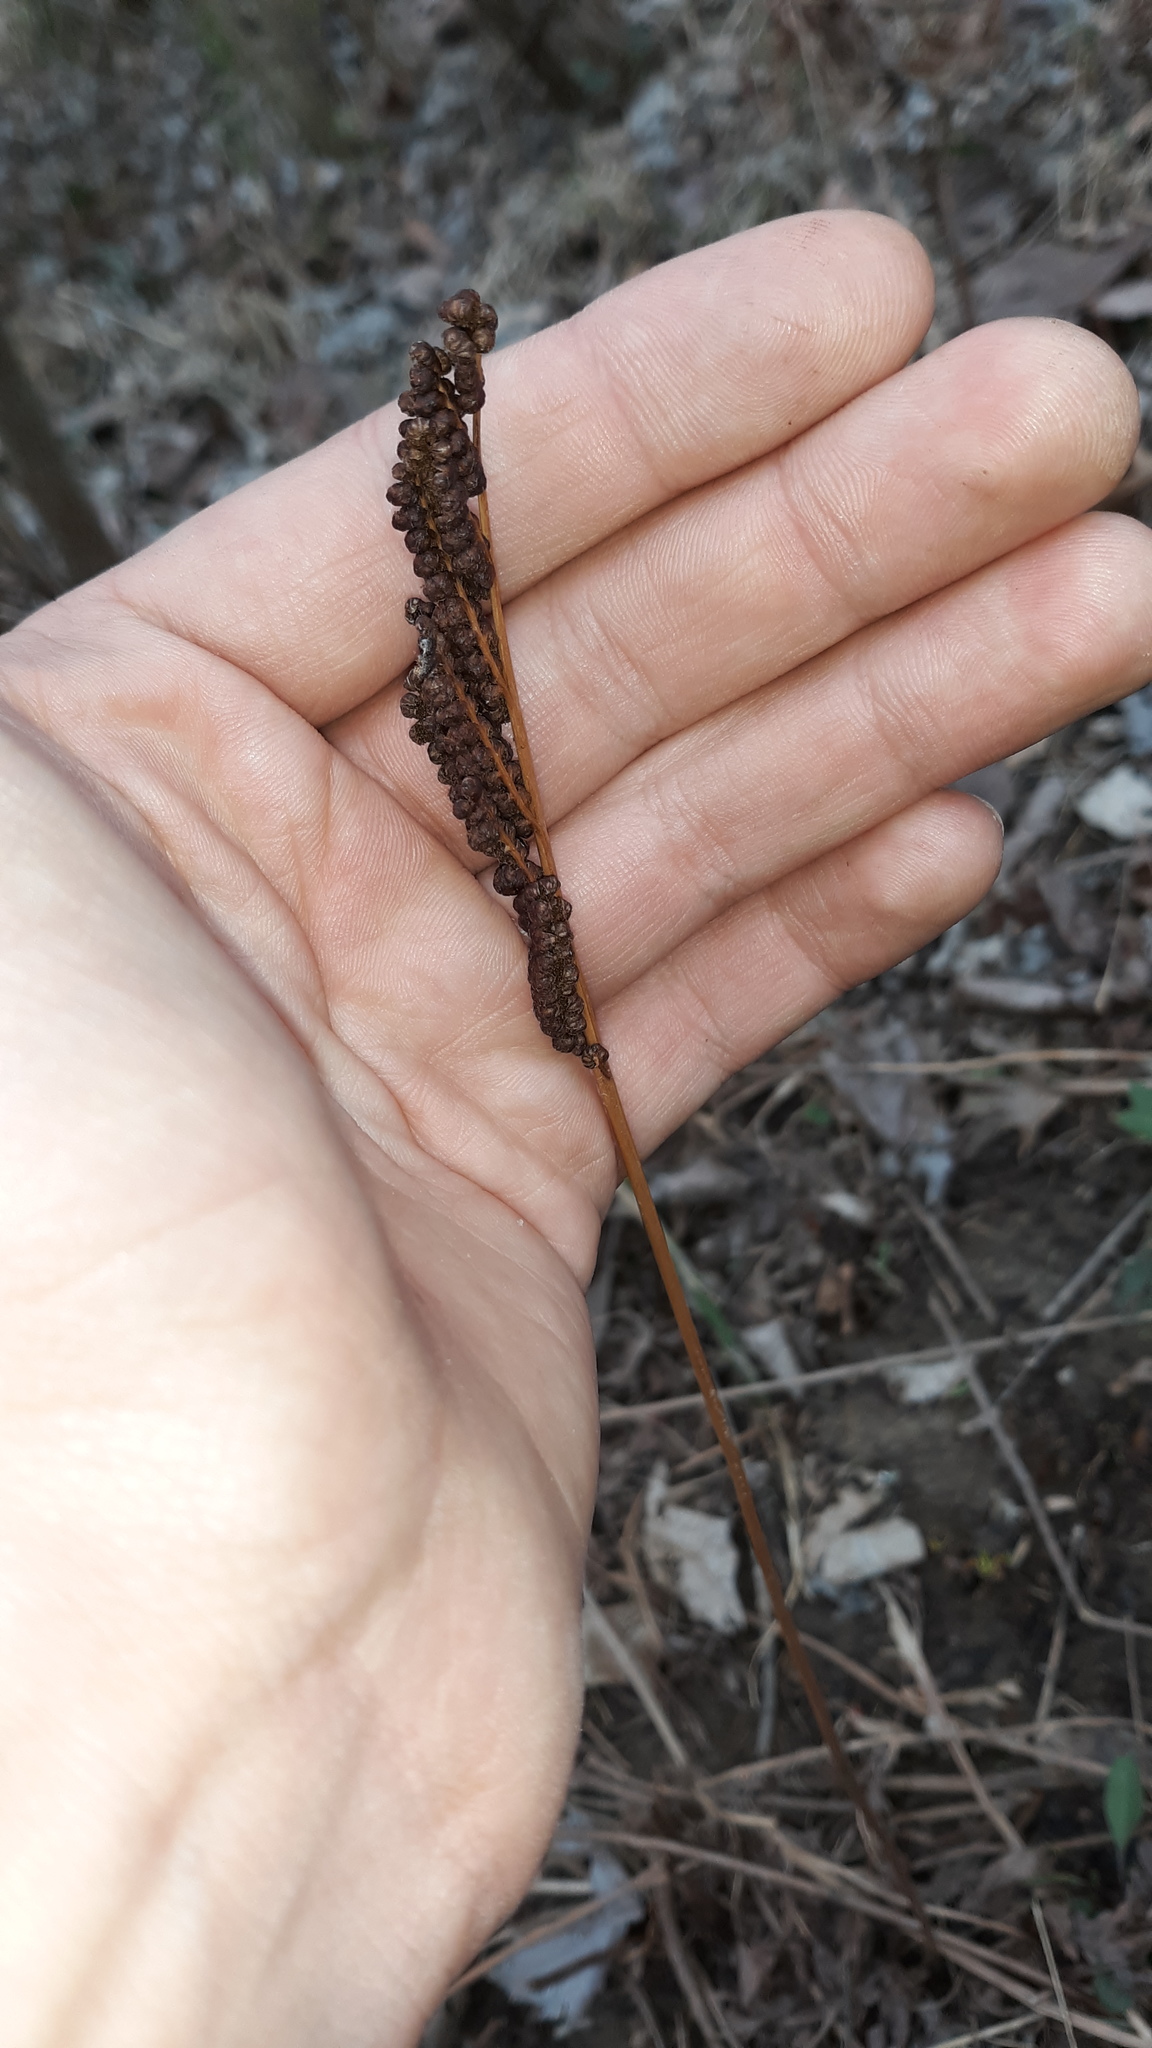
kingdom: Plantae
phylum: Tracheophyta
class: Polypodiopsida
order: Polypodiales
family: Onocleaceae
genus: Onoclea
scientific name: Onoclea sensibilis
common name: Sensitive fern
